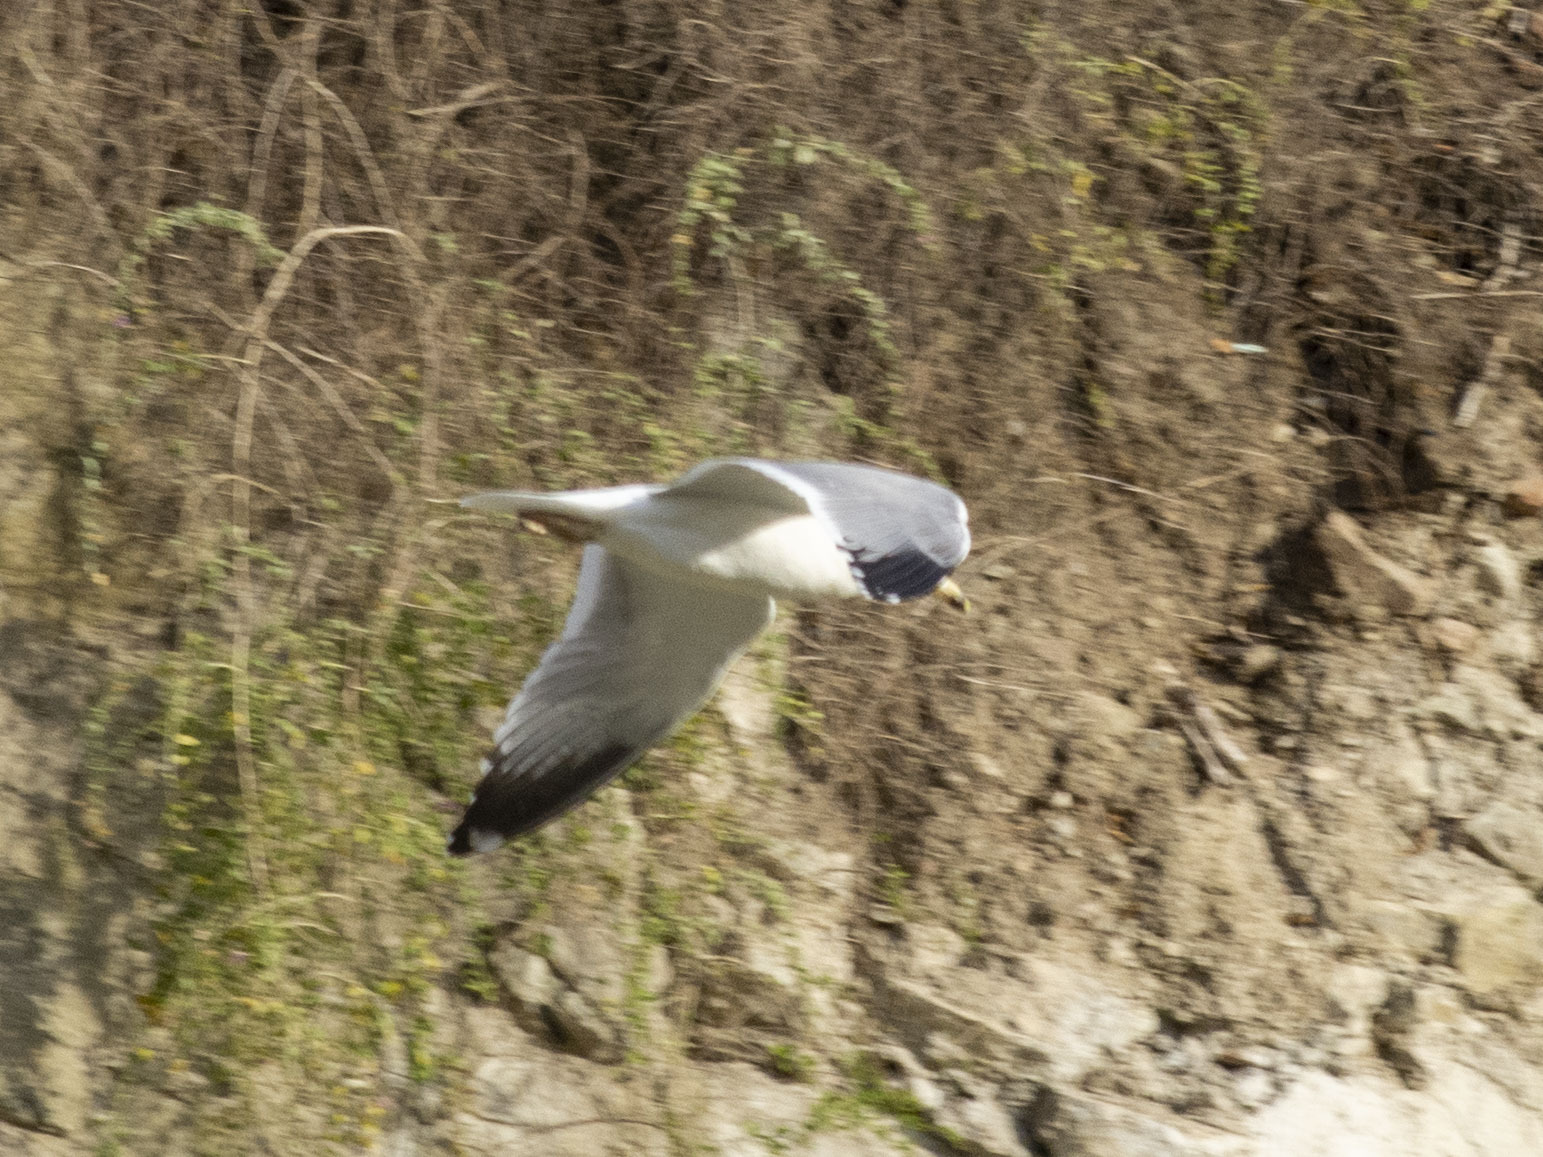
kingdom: Animalia
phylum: Chordata
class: Aves
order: Charadriiformes
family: Laridae
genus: Larus
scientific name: Larus armenicus
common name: Armenian gull
